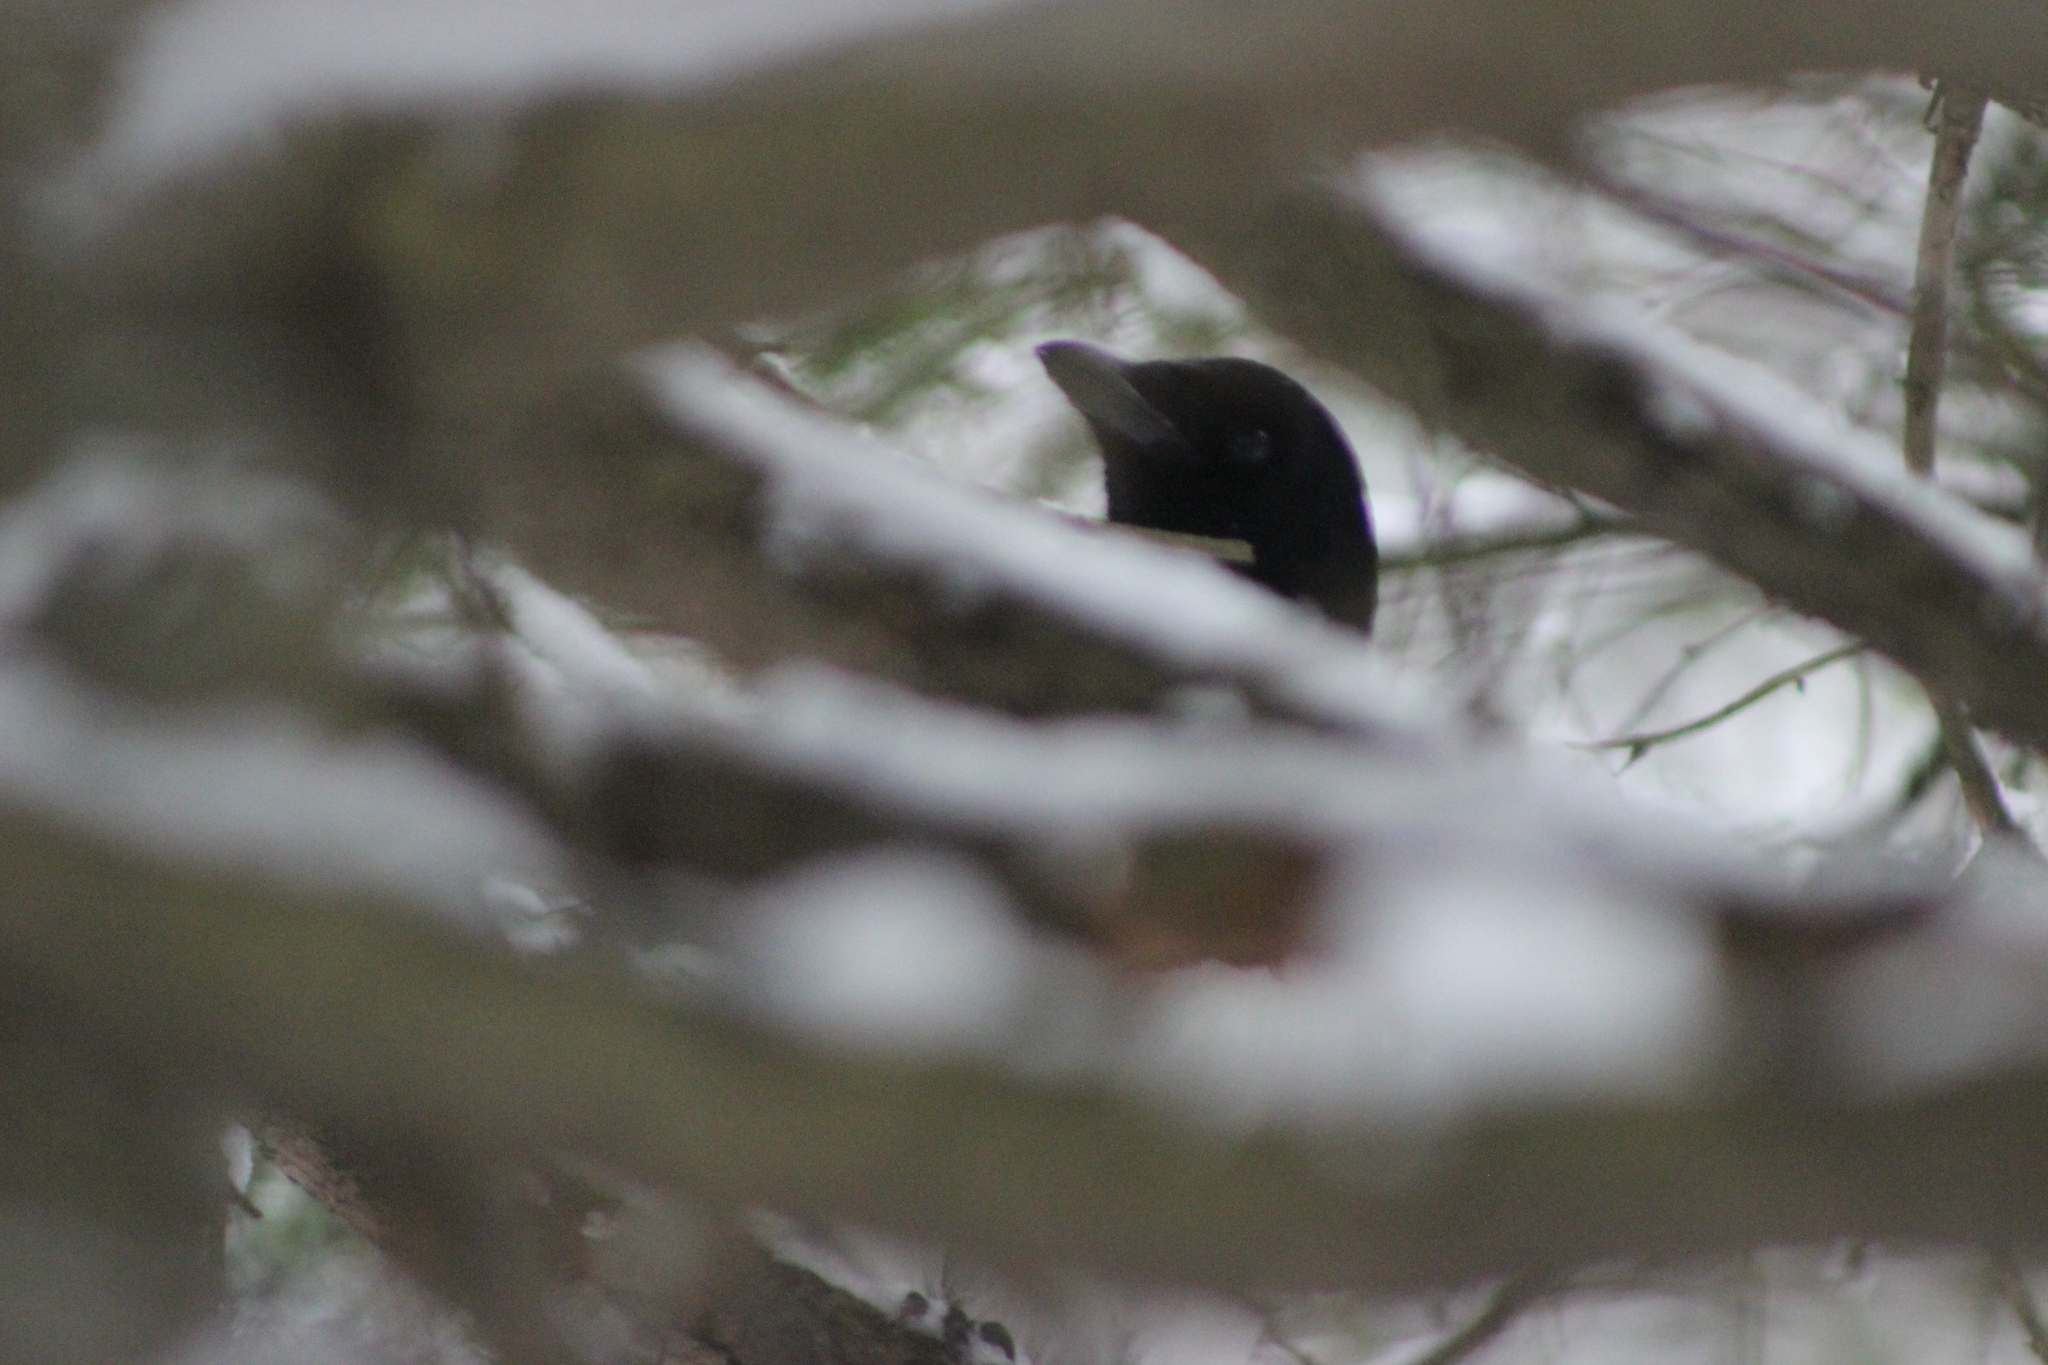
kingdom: Animalia
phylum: Chordata
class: Aves
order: Passeriformes
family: Corvidae
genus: Pica
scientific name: Pica pica
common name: Eurasian magpie
